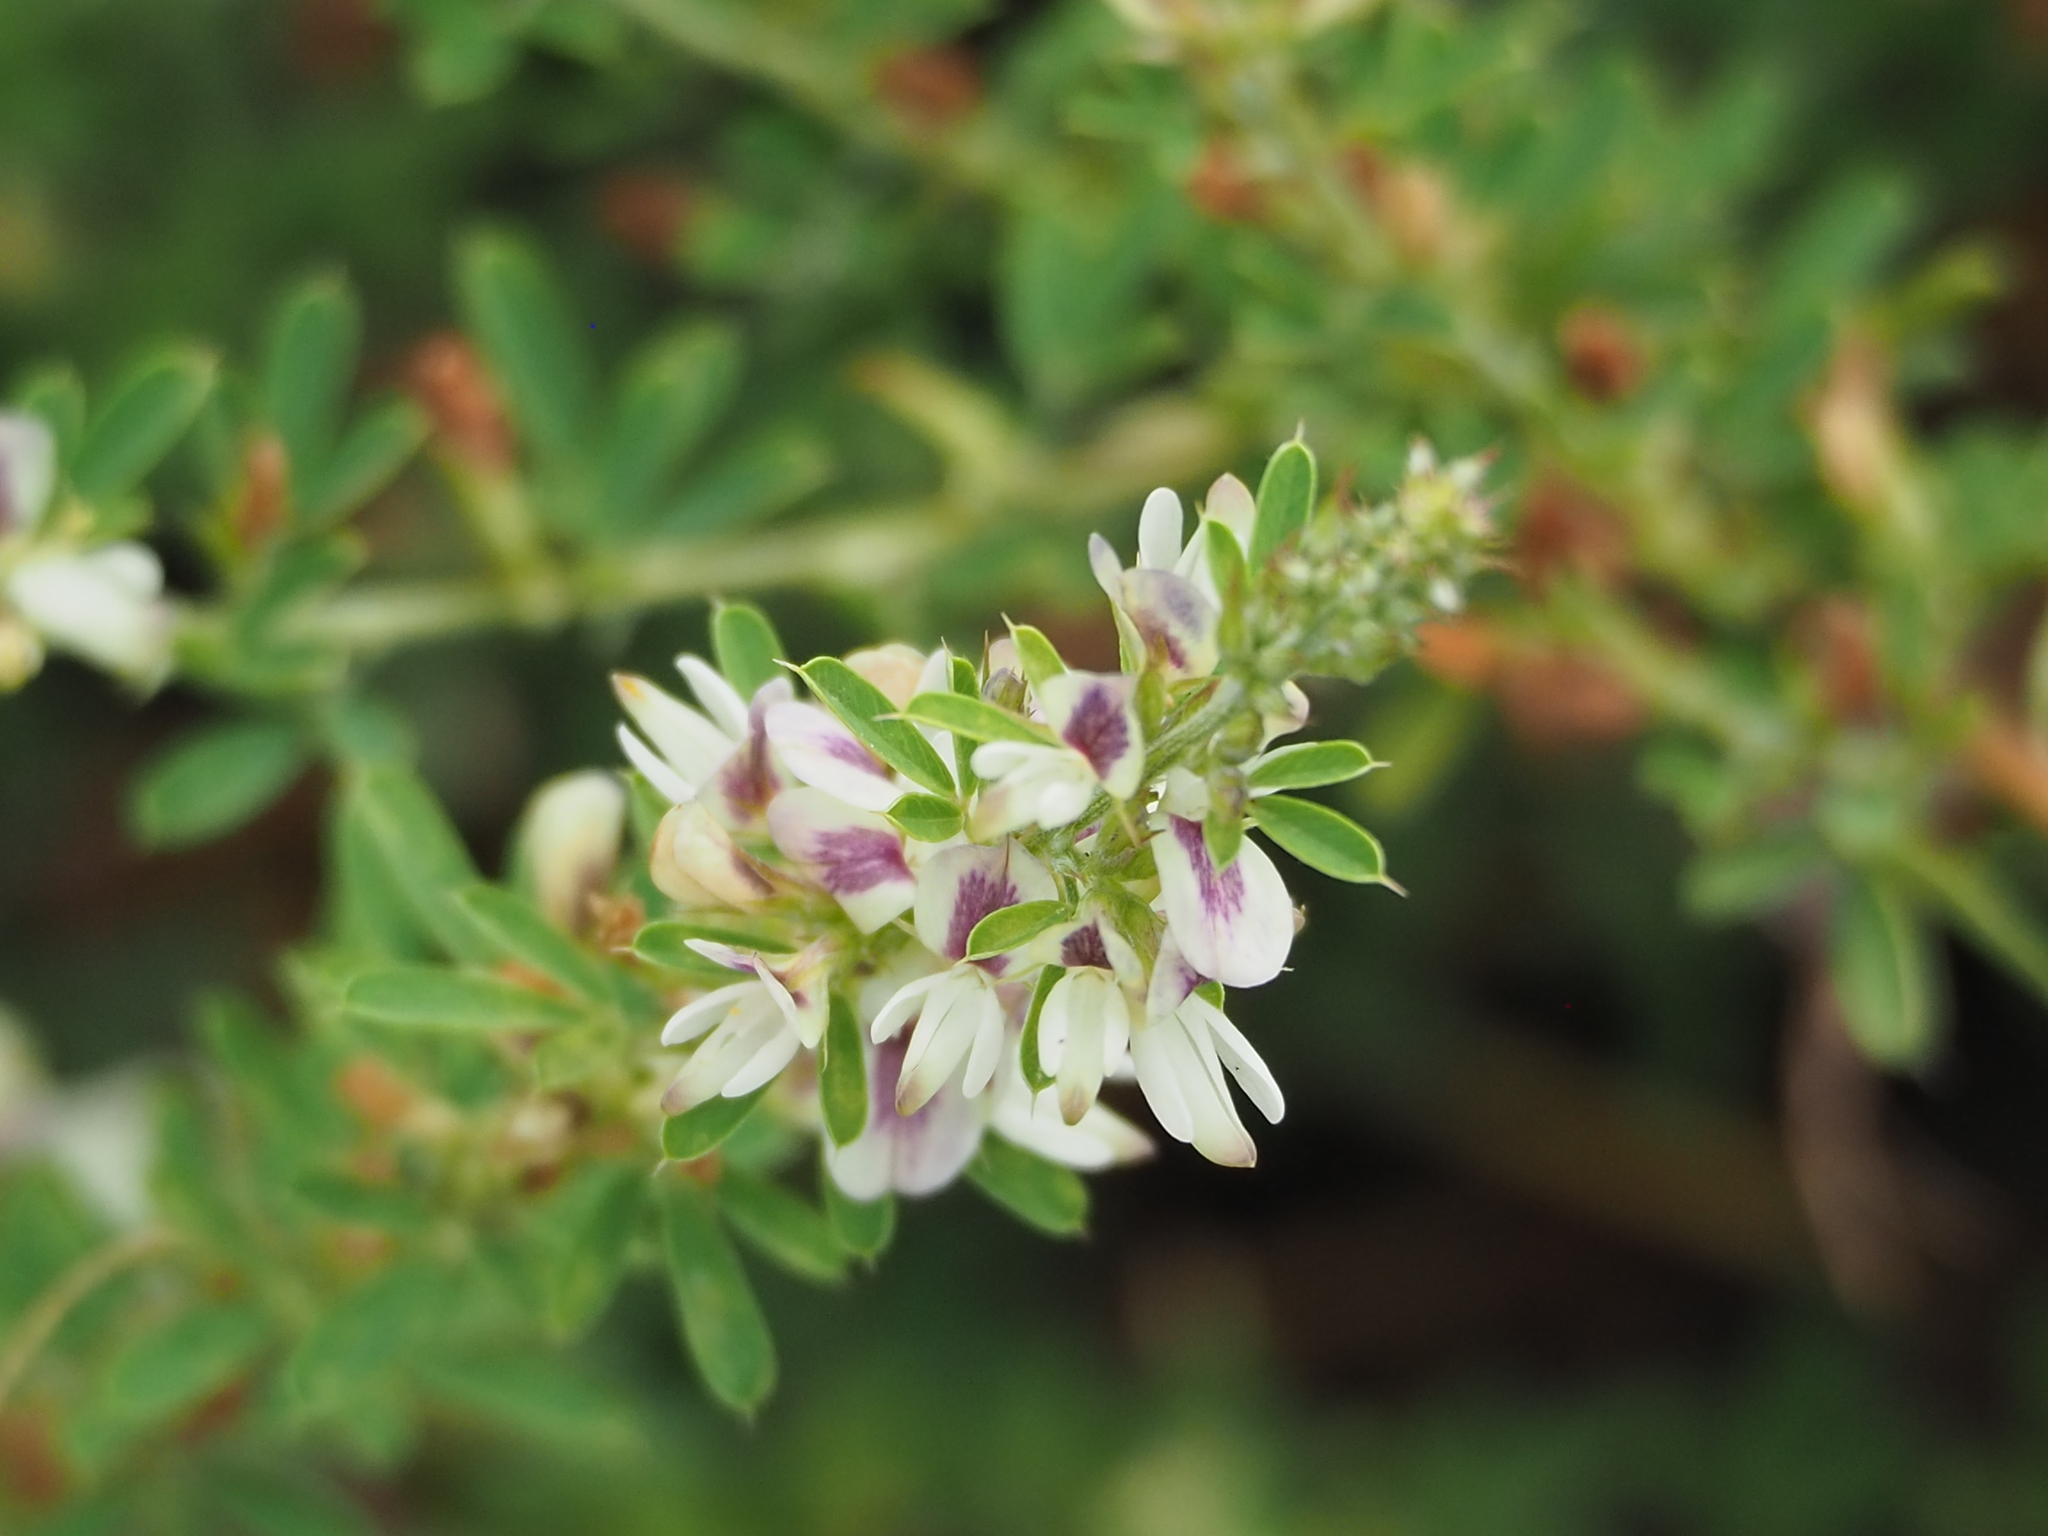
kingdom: Plantae
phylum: Tracheophyta
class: Magnoliopsida
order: Fabales
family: Fabaceae
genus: Lespedeza
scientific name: Lespedeza cuneata
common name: Chinese bush-clover
